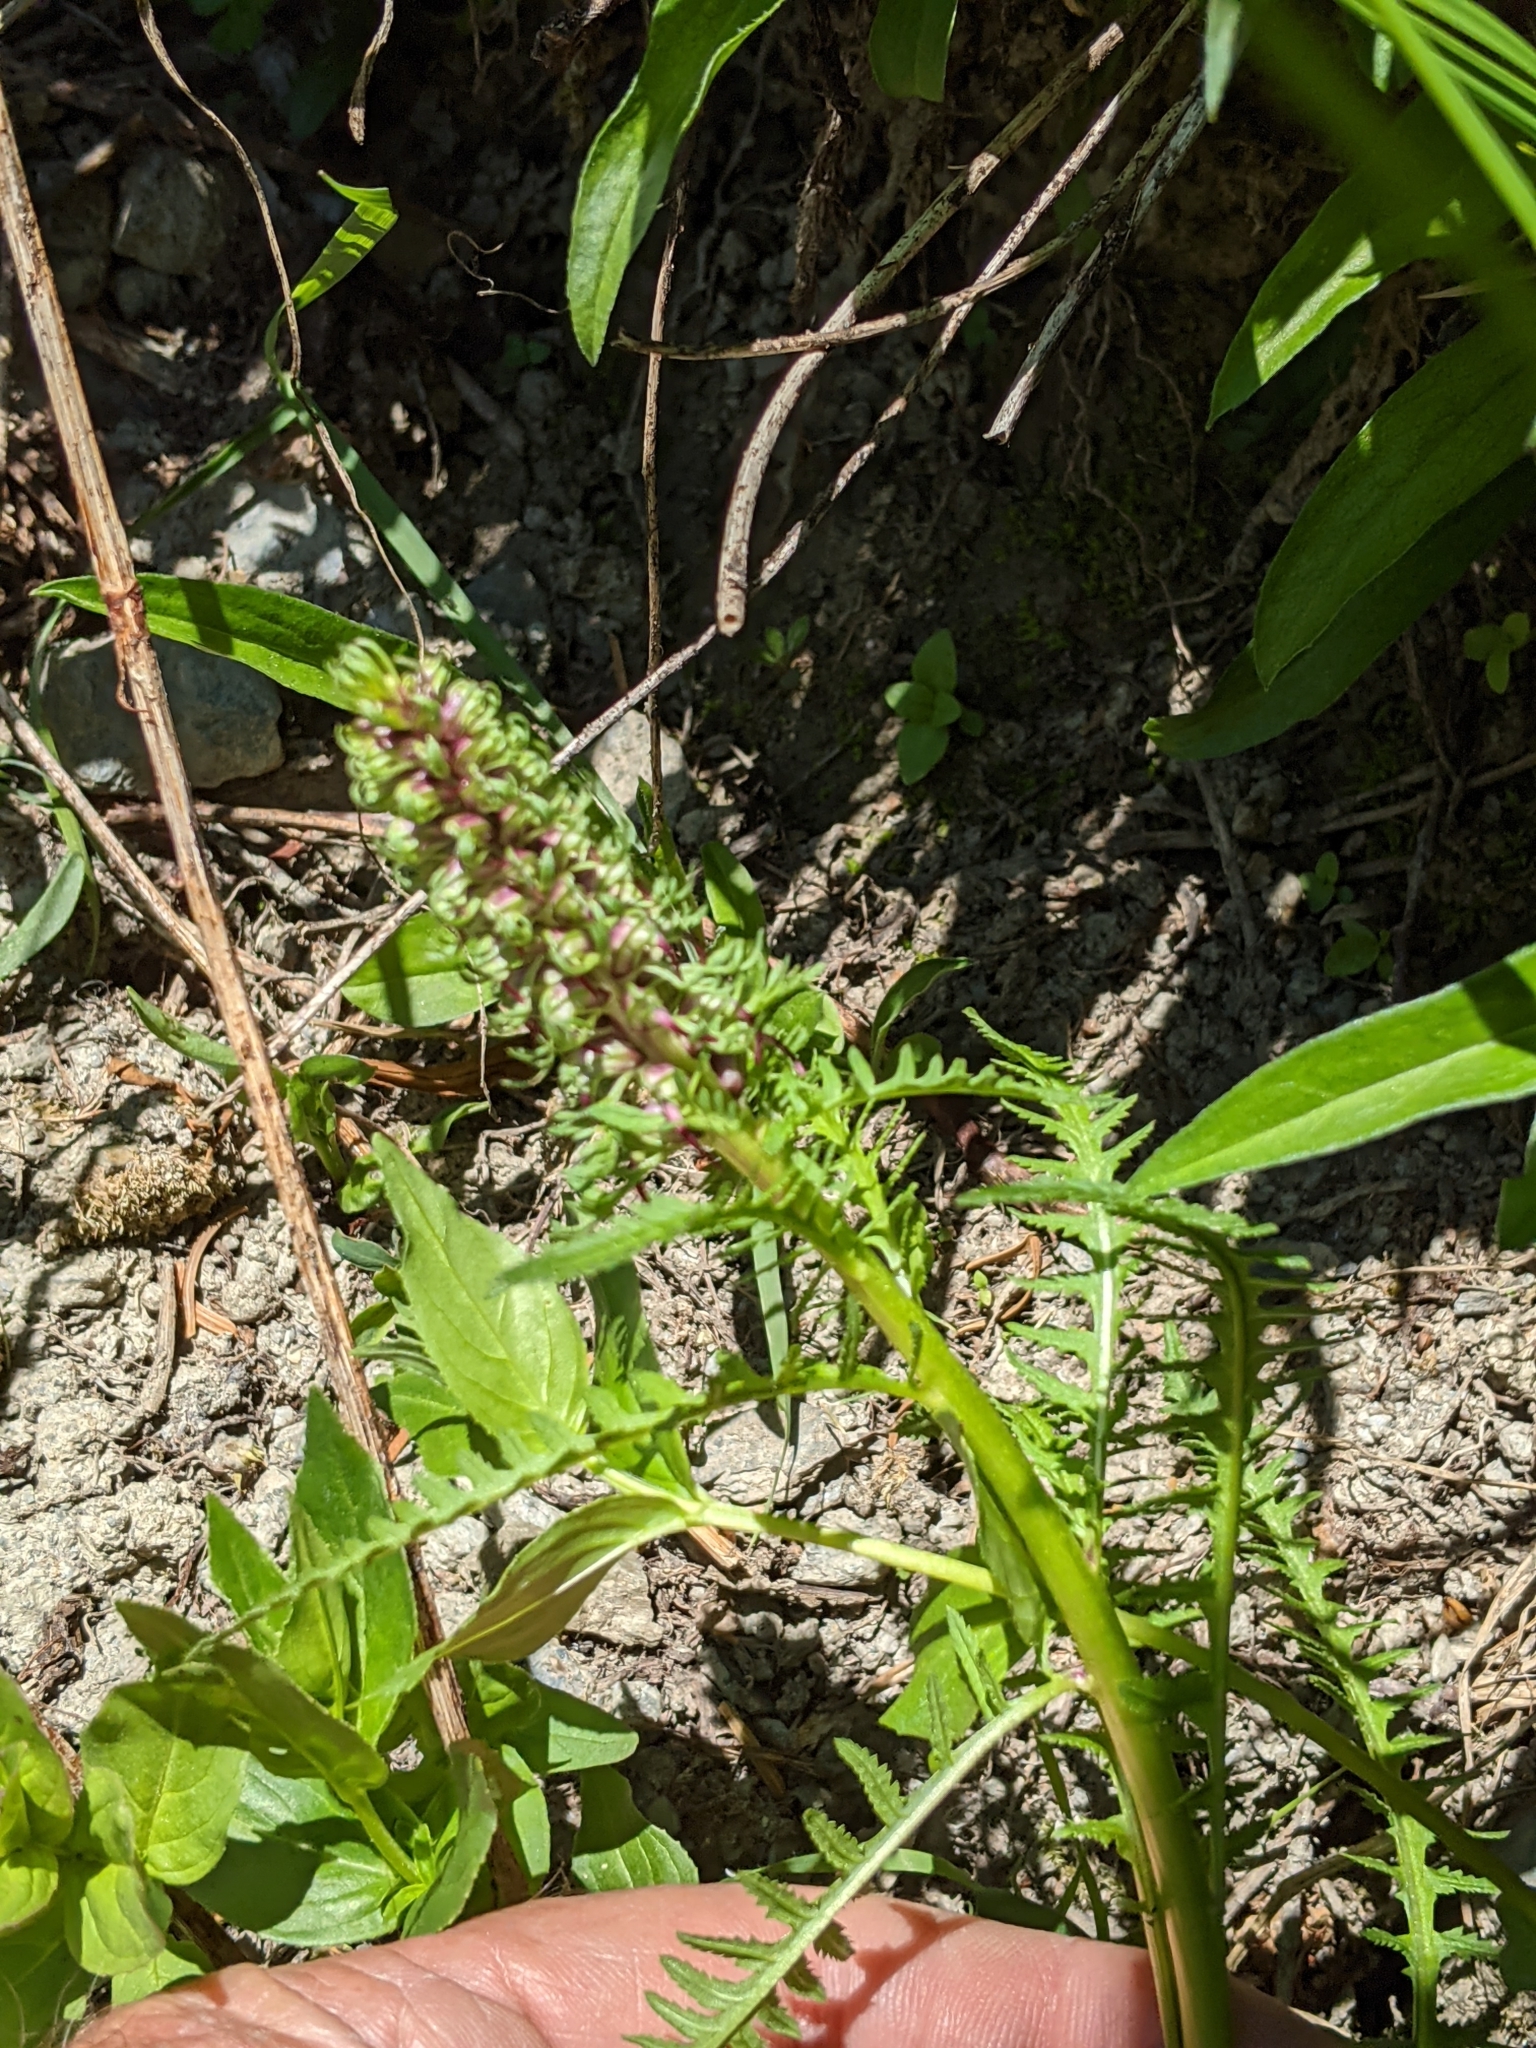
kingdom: Plantae
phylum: Tracheophyta
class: Magnoliopsida
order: Lamiales
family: Orobanchaceae
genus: Pedicularis
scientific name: Pedicularis groenlandica
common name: Elephant's-head
